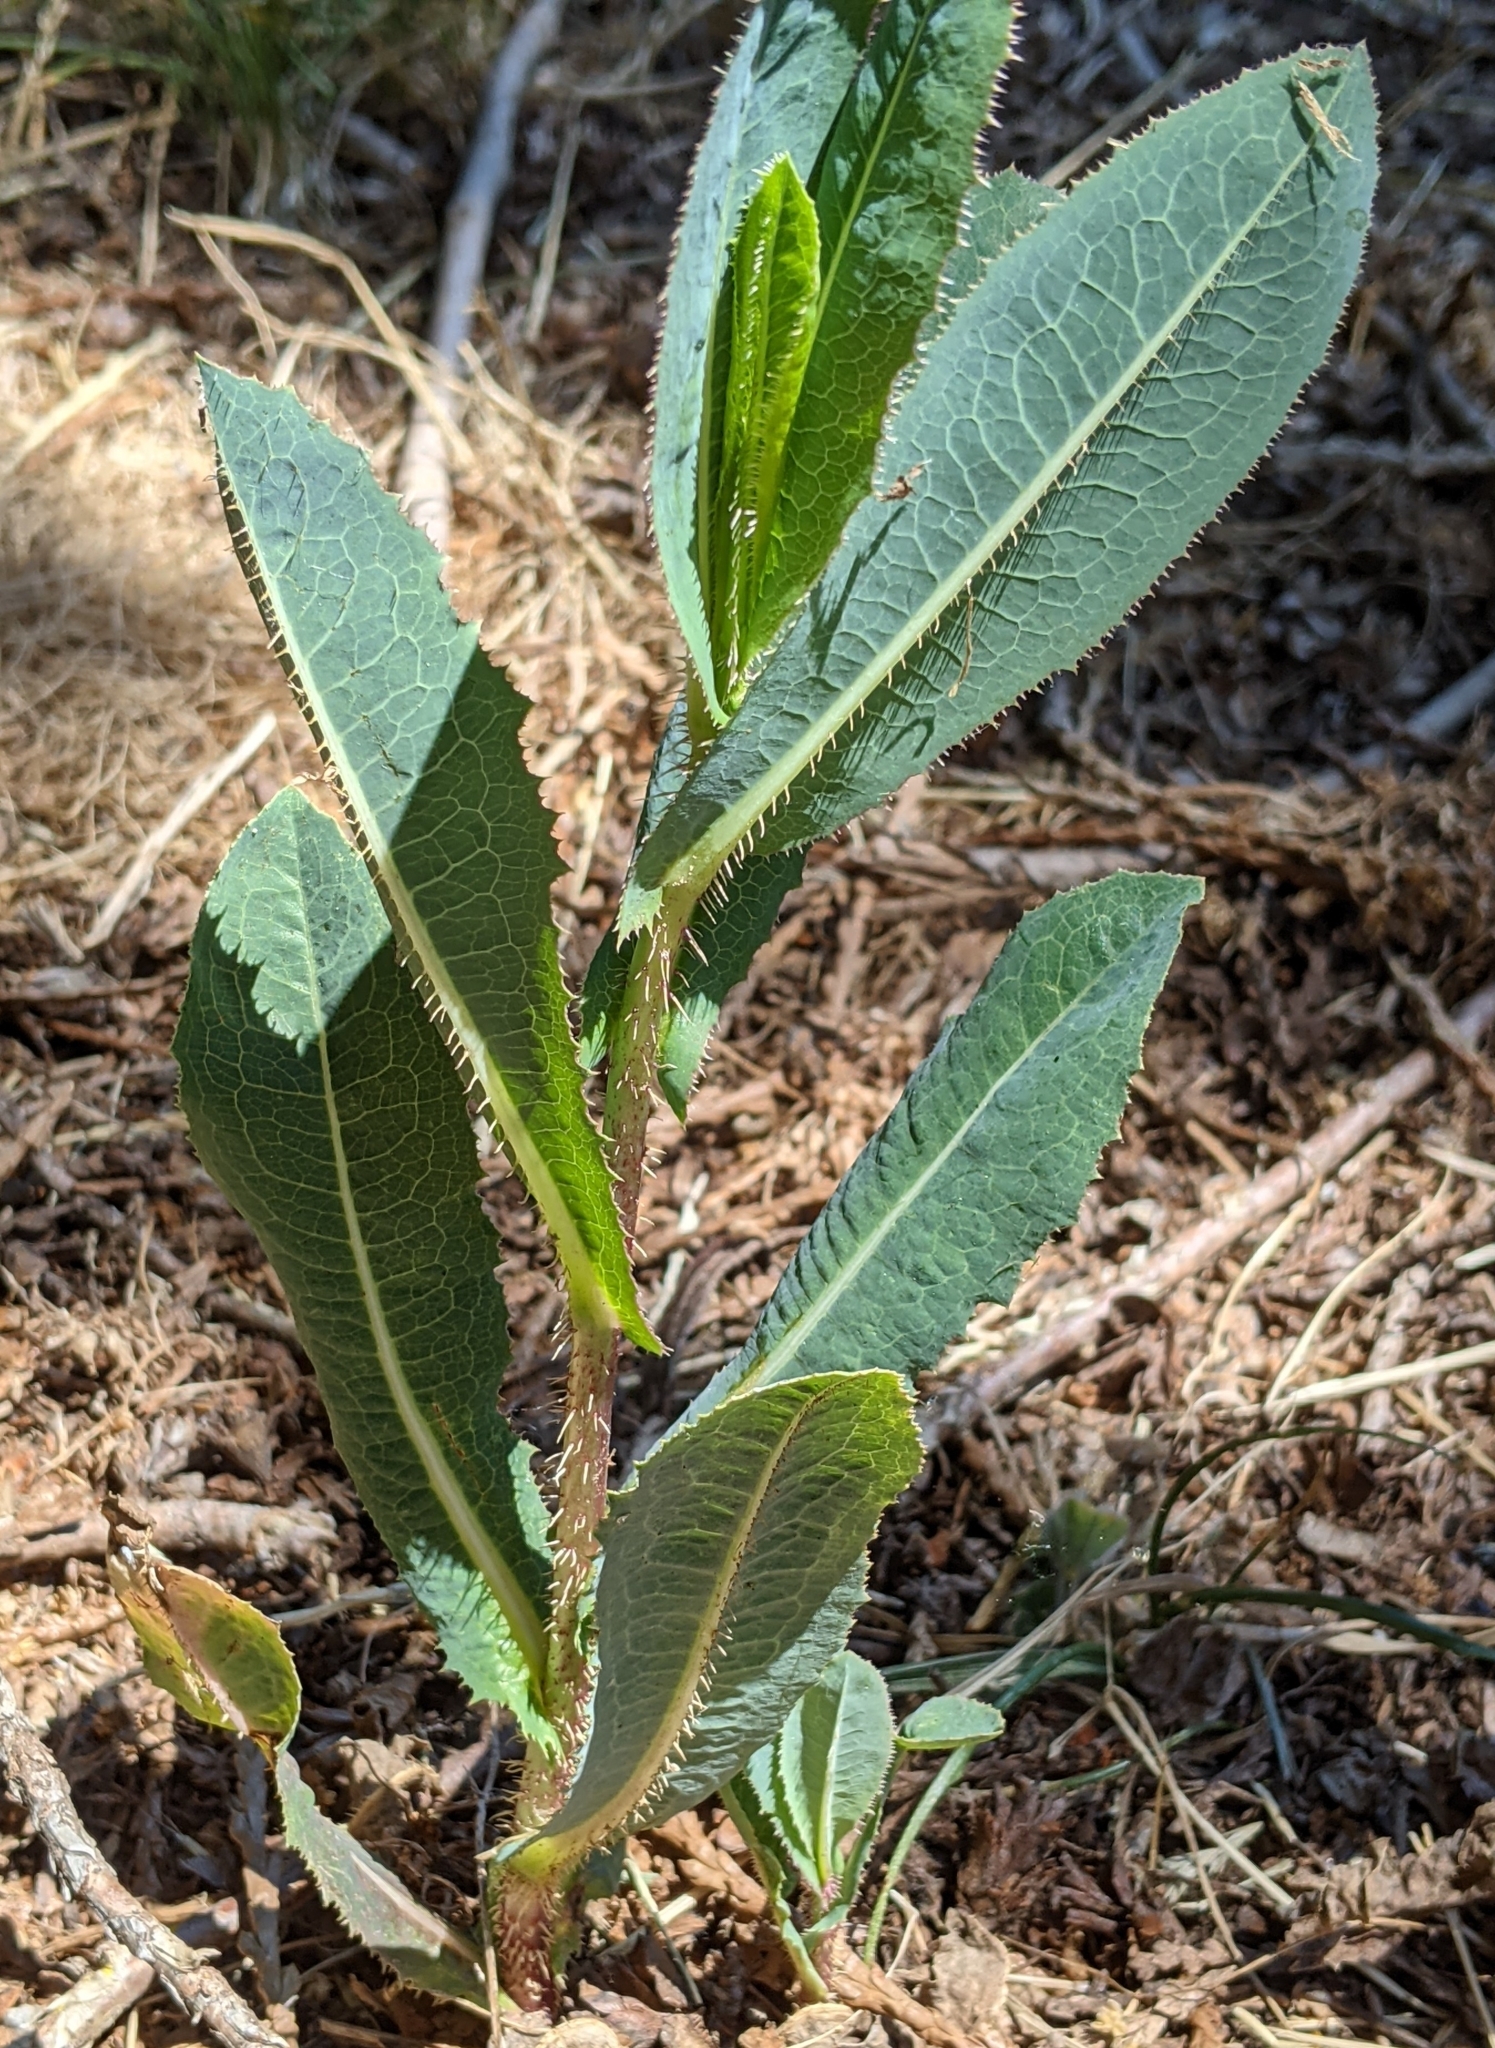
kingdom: Plantae
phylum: Tracheophyta
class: Magnoliopsida
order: Asterales
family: Asteraceae
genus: Lactuca
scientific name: Lactuca serriola
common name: Prickly lettuce
